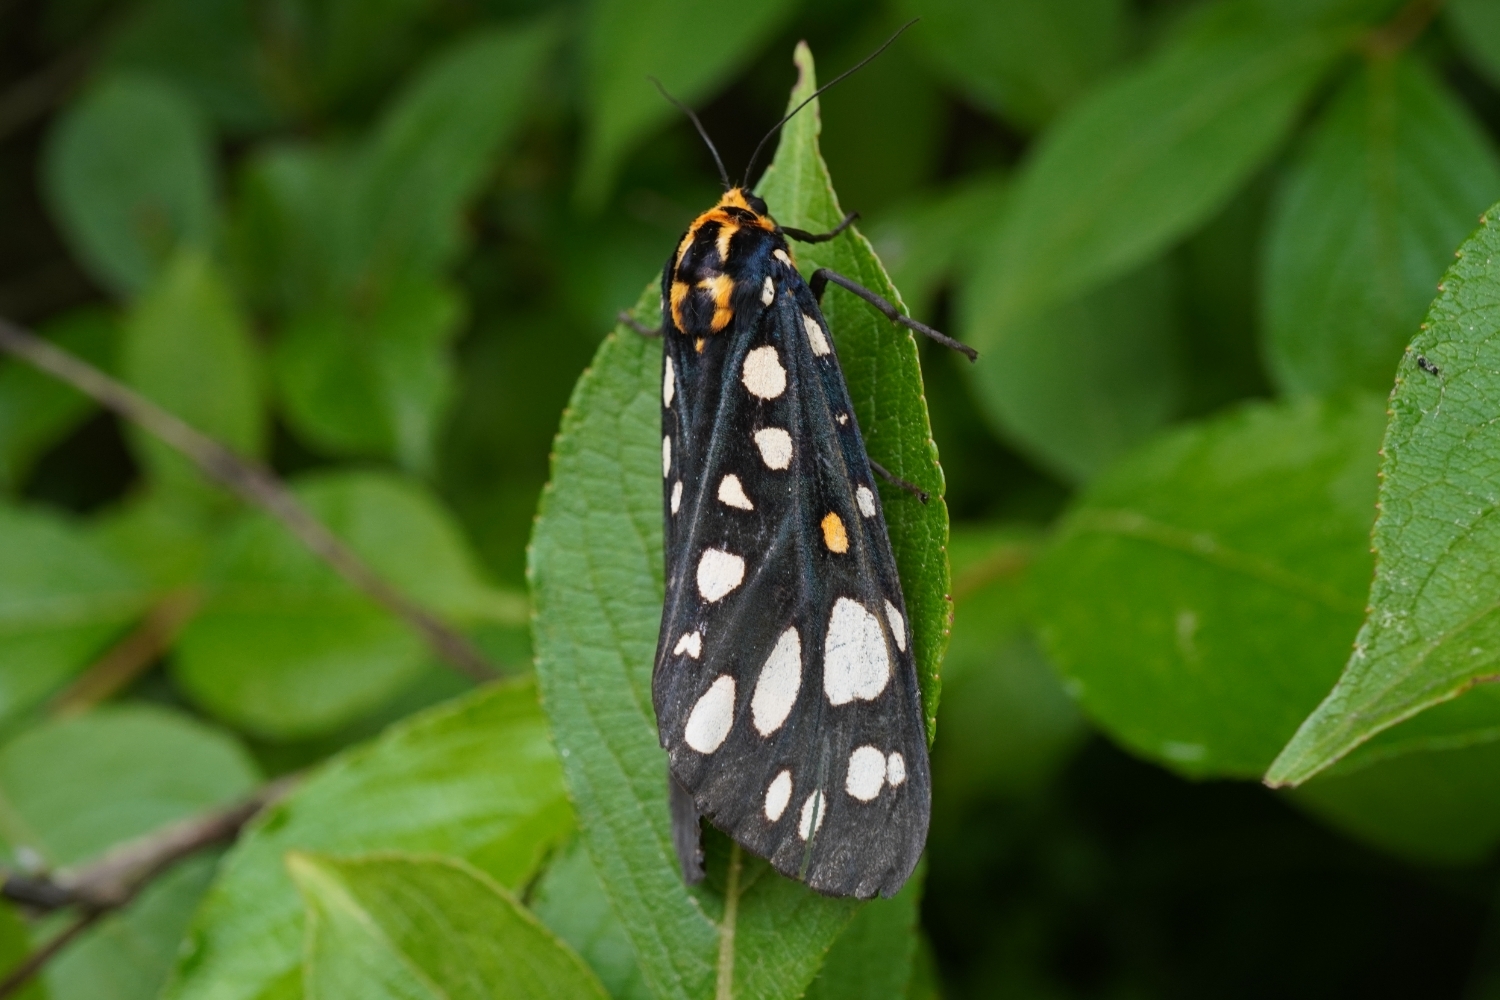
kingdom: Animalia
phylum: Arthropoda
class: Insecta
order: Lepidoptera
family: Erebidae
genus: Aglaomorpha
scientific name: Aglaomorpha histrio
